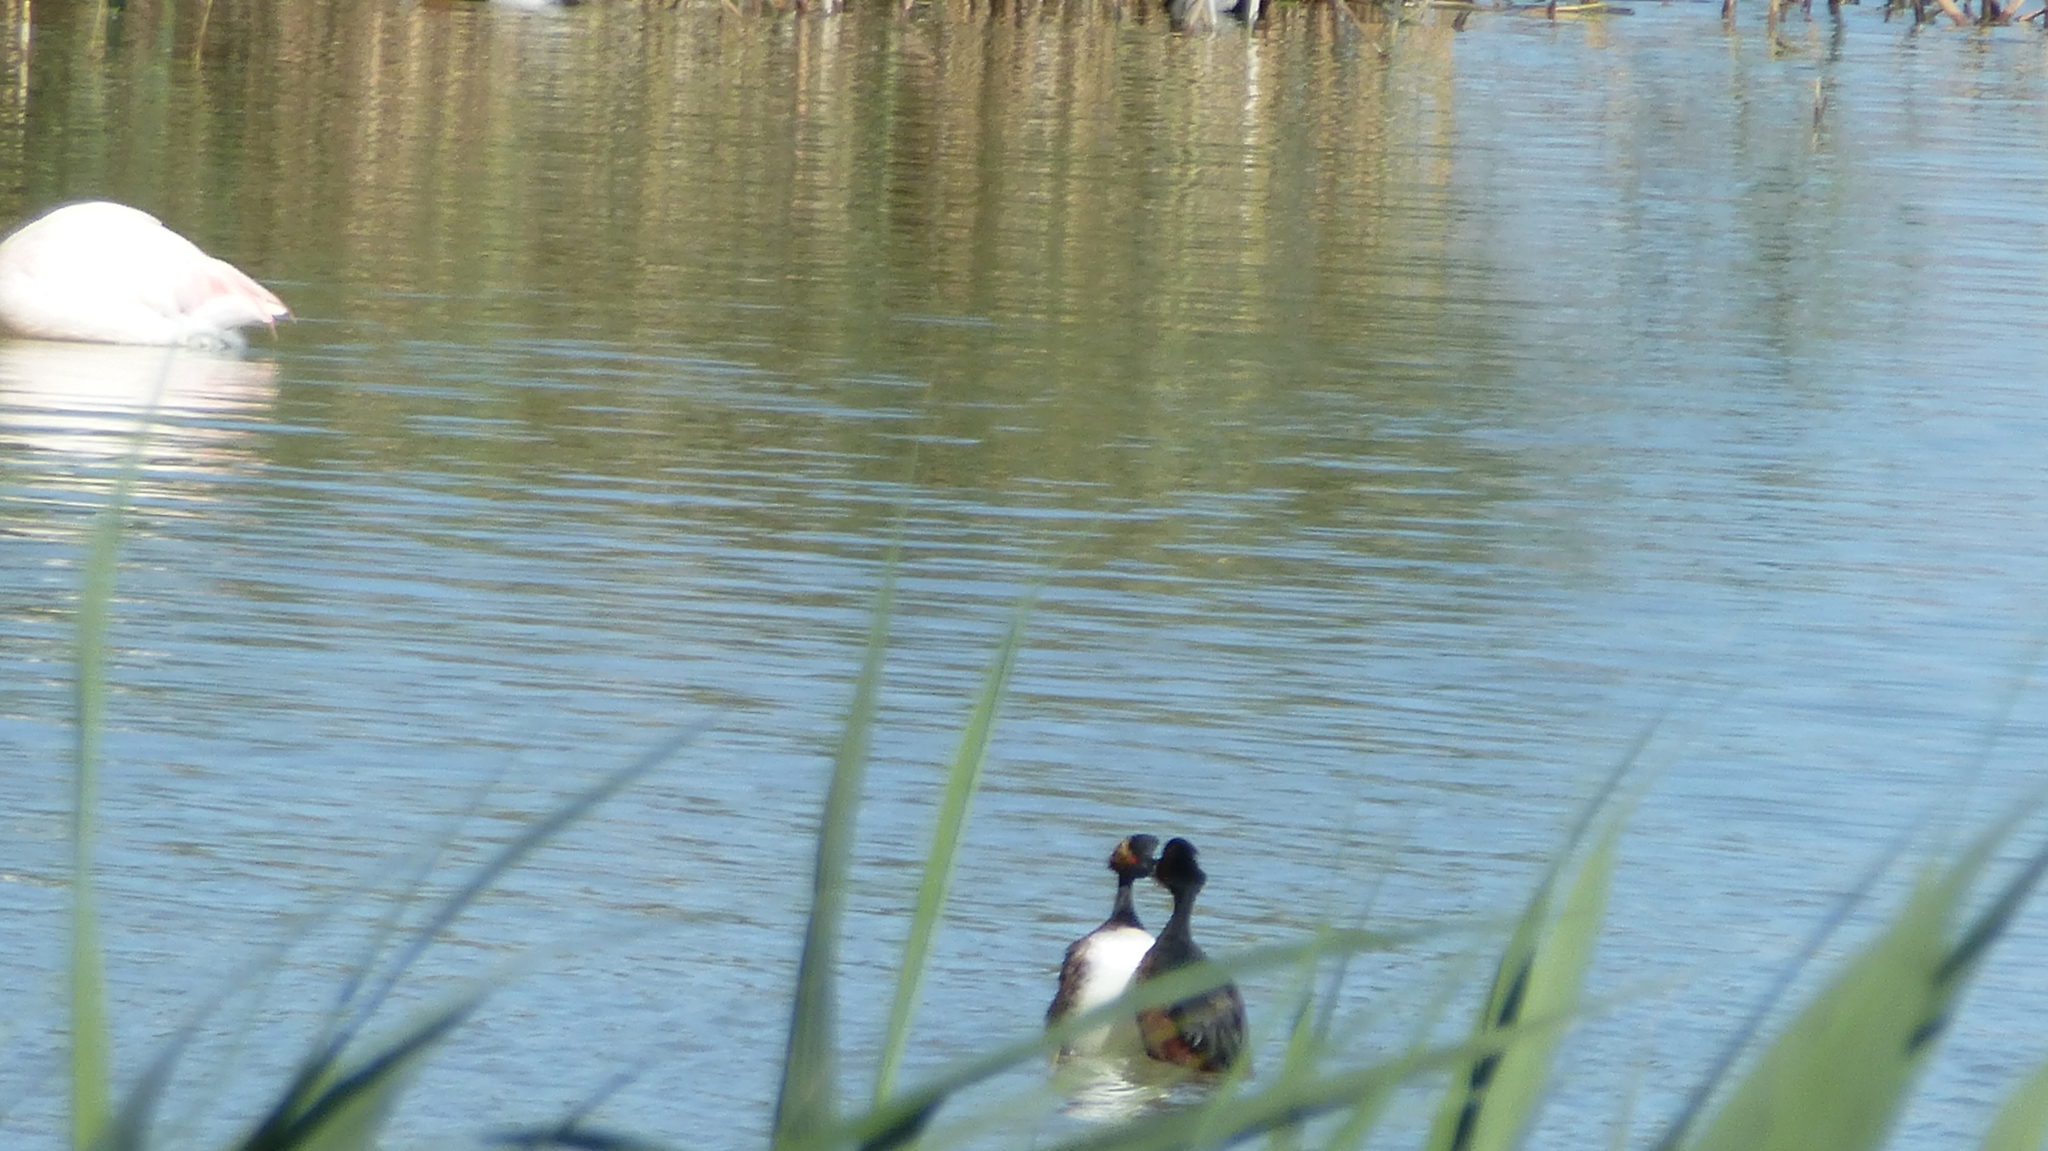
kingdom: Animalia
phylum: Chordata
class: Aves
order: Podicipediformes
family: Podicipedidae
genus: Podiceps
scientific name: Podiceps nigricollis
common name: Black-necked grebe
